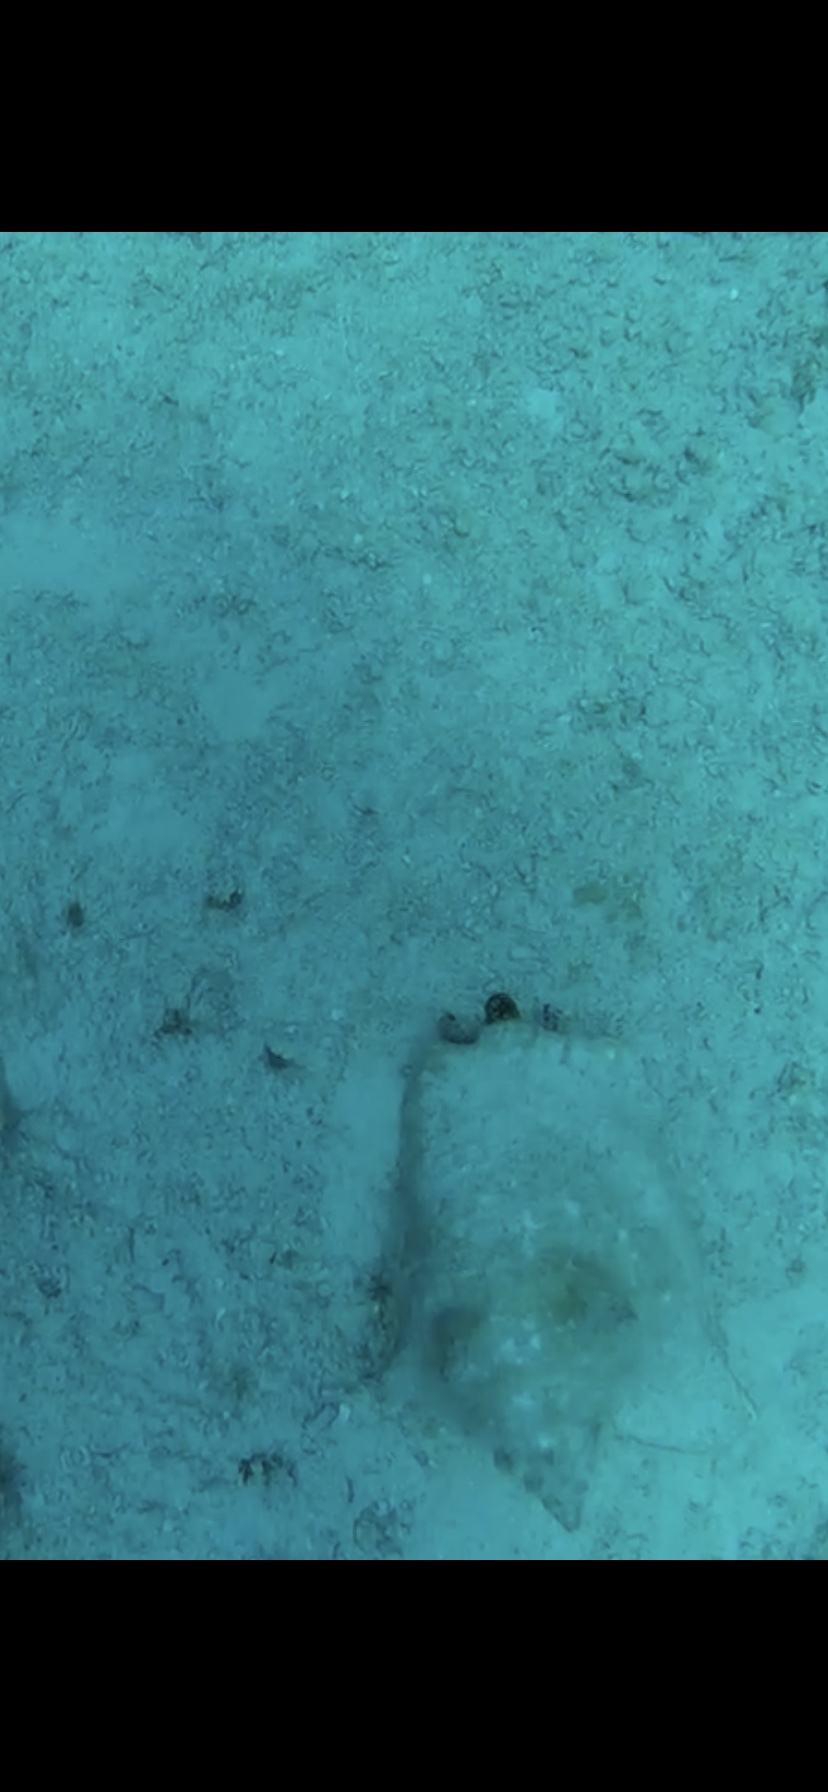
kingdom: Animalia
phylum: Mollusca
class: Gastropoda
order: Littorinimorpha
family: Strombidae
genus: Aliger
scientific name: Aliger gigas
